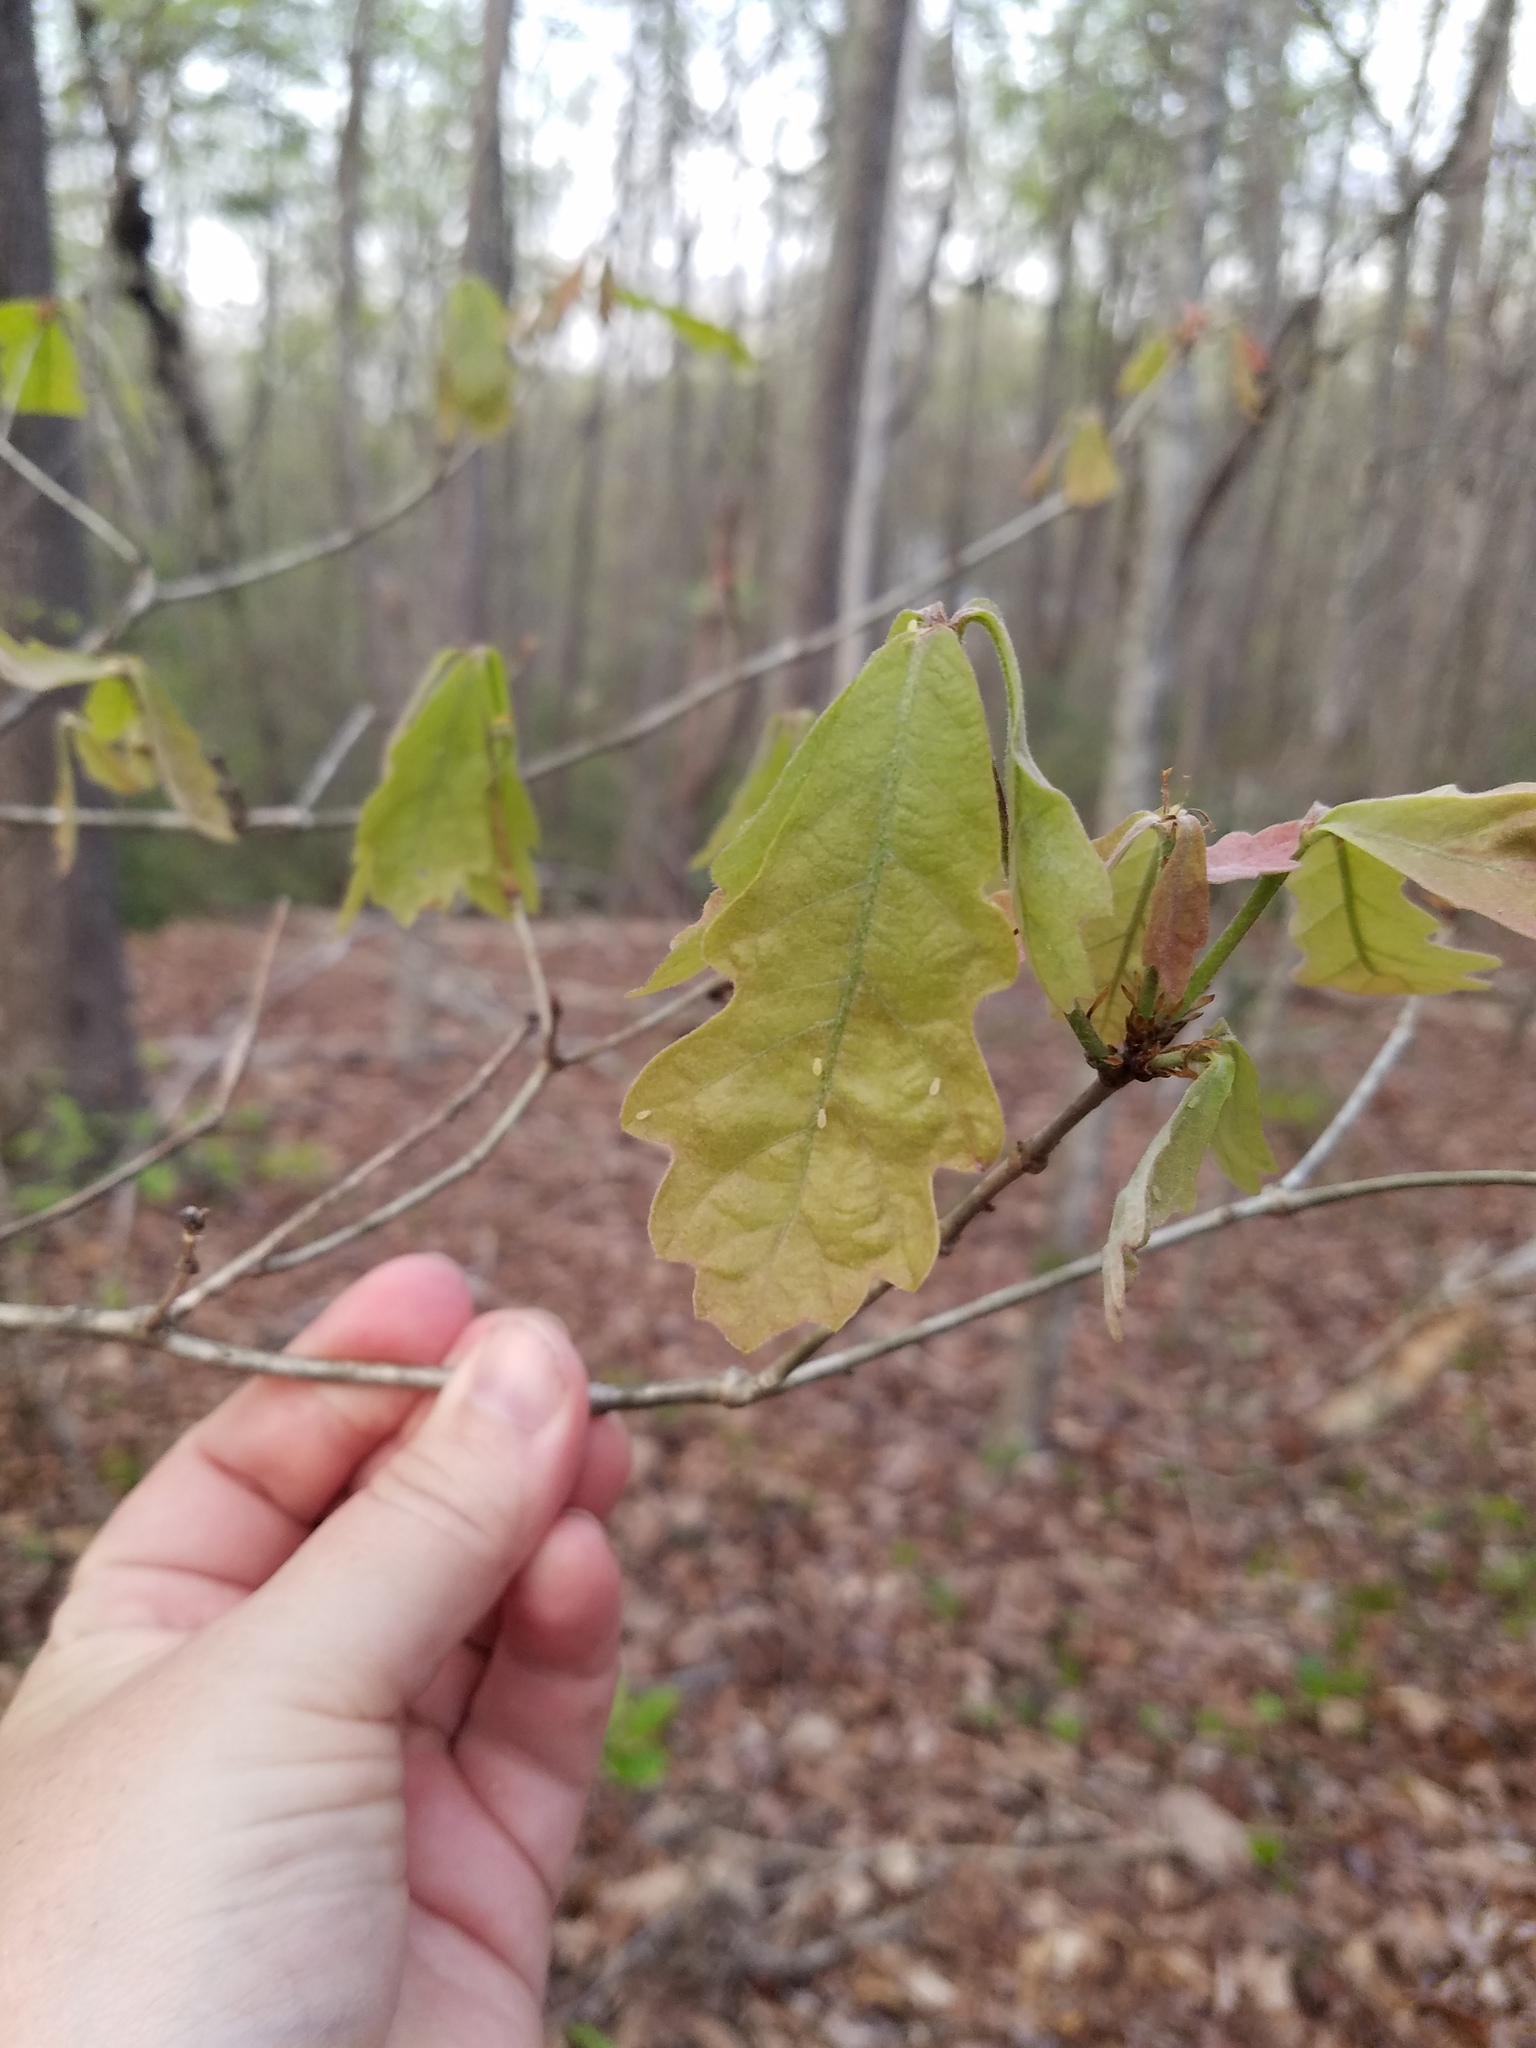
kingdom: Plantae
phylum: Tracheophyta
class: Magnoliopsida
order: Fagales
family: Fagaceae
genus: Quercus
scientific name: Quercus alba
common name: White oak
